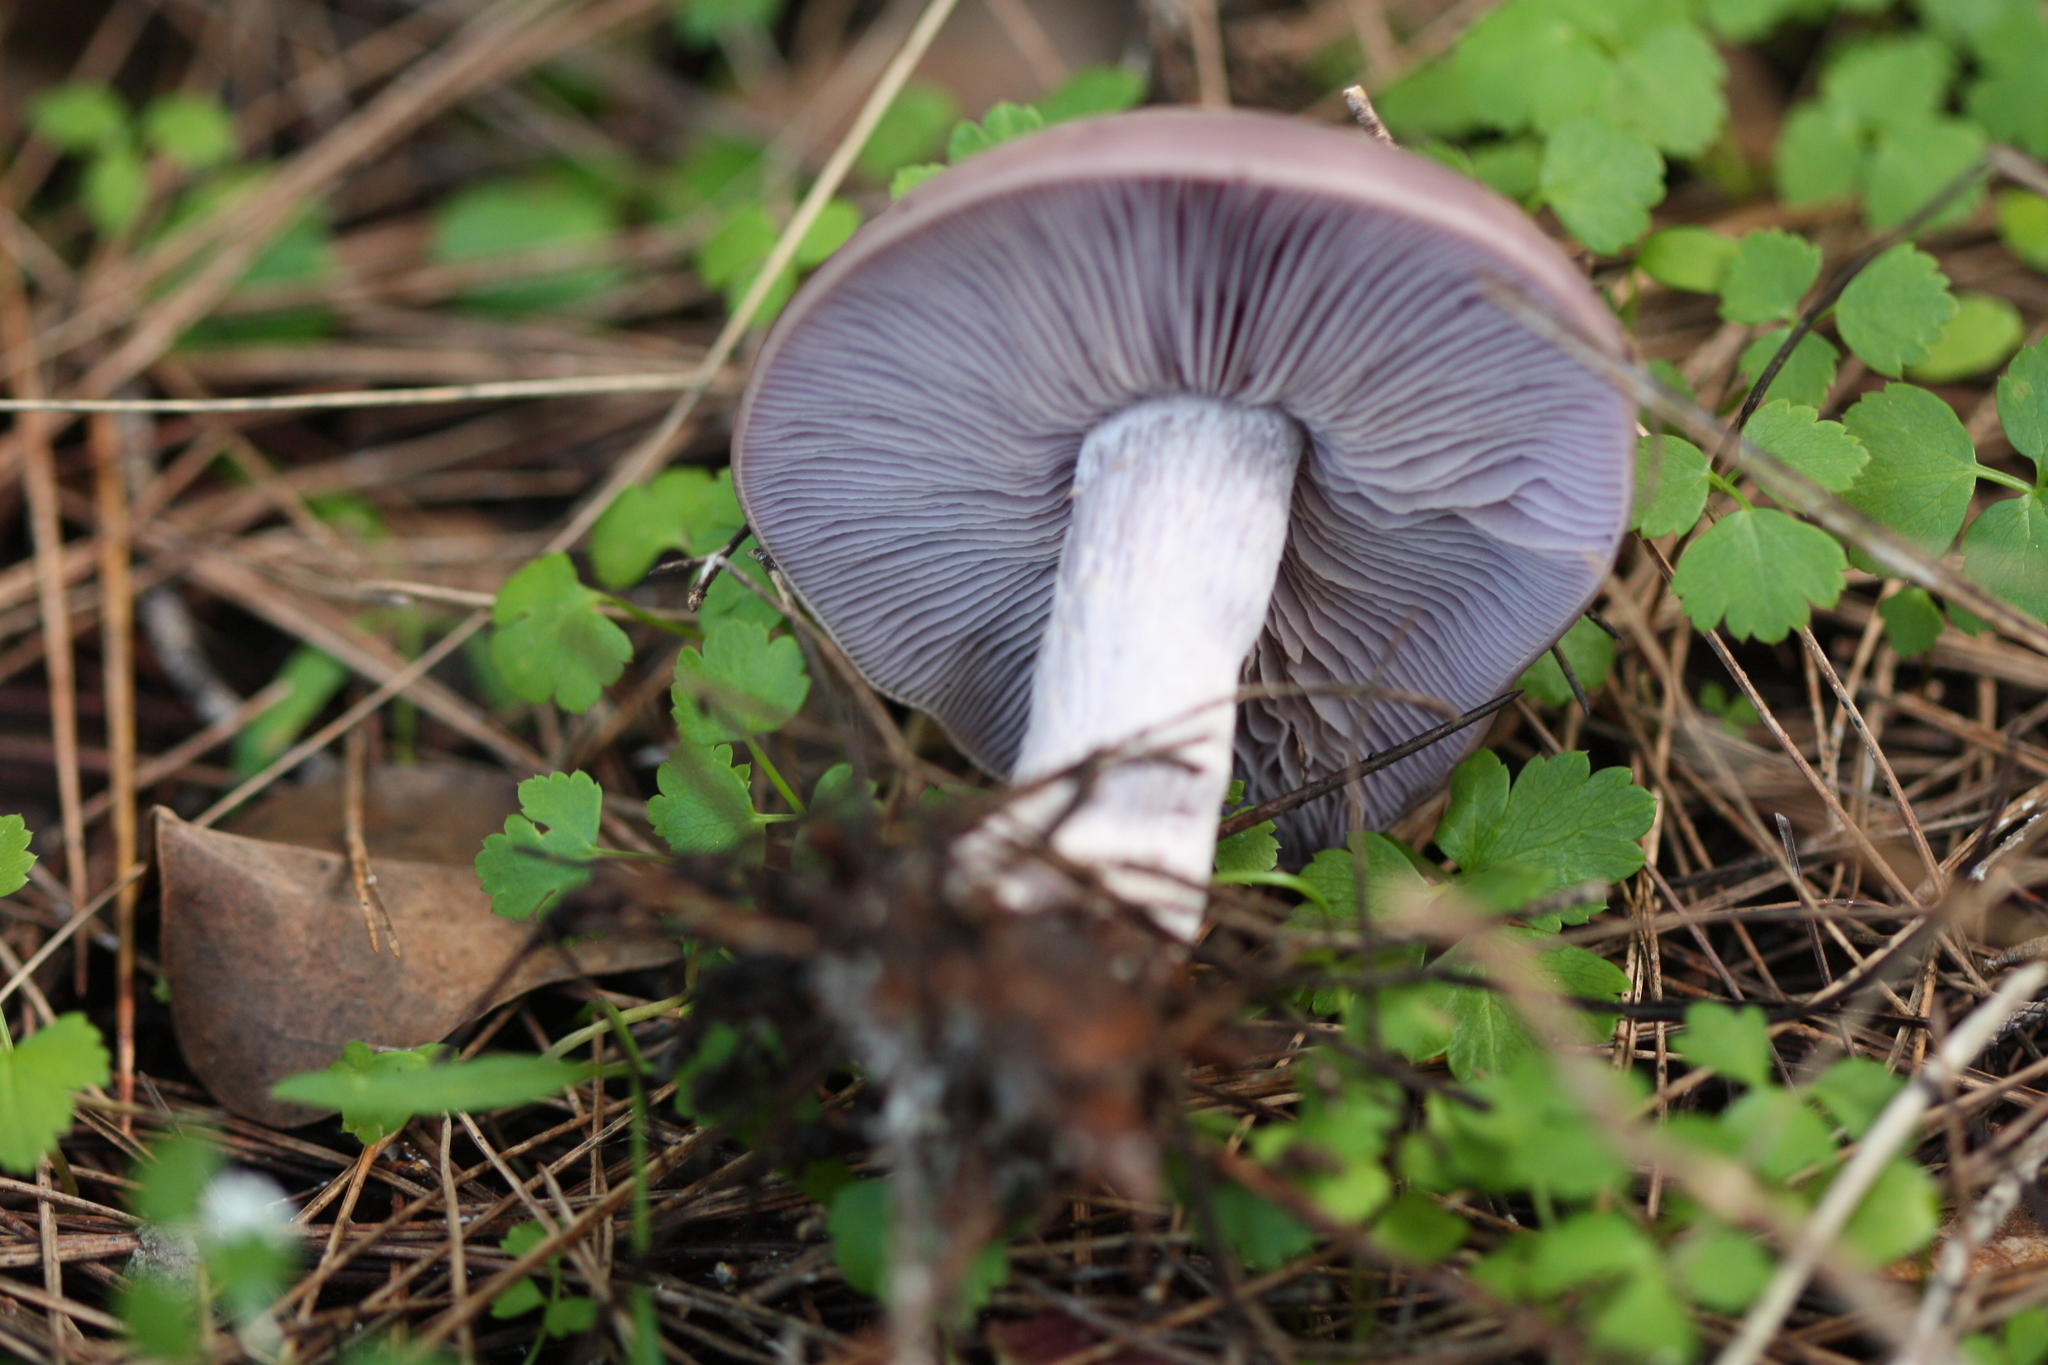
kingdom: Fungi
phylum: Basidiomycota
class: Agaricomycetes
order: Agaricales
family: Tricholomataceae
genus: Collybia
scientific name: Collybia
